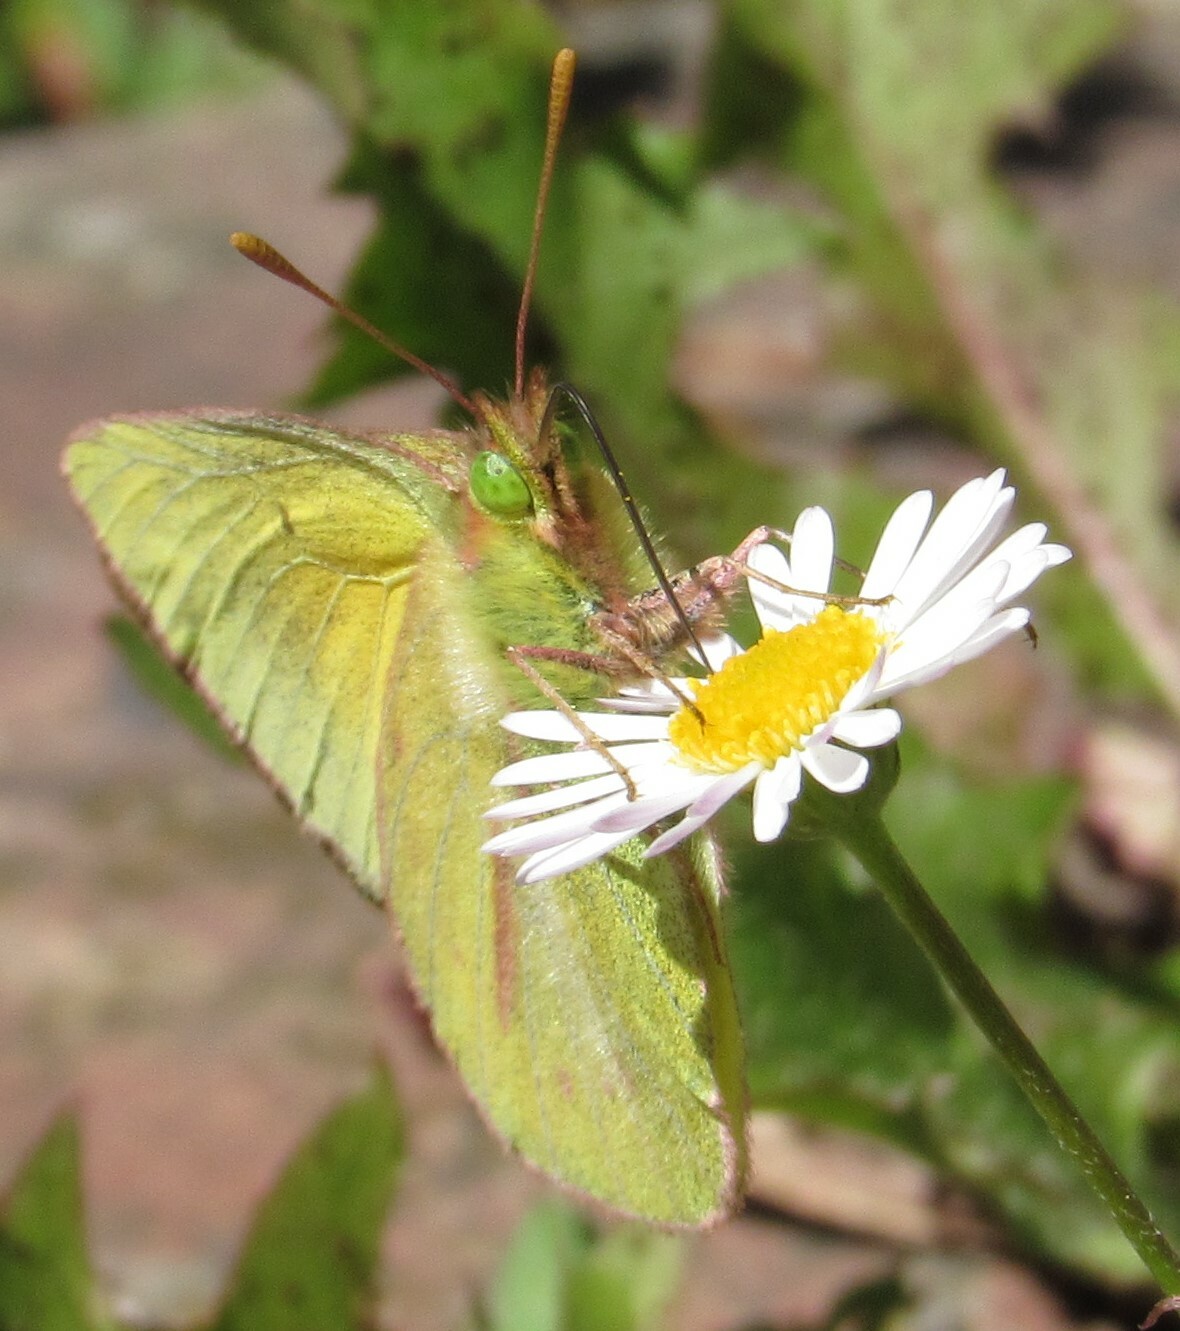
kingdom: Animalia
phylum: Arthropoda
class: Insecta
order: Lepidoptera
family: Pieridae
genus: Colias
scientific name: Colias dimera
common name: Dimera sulphur
